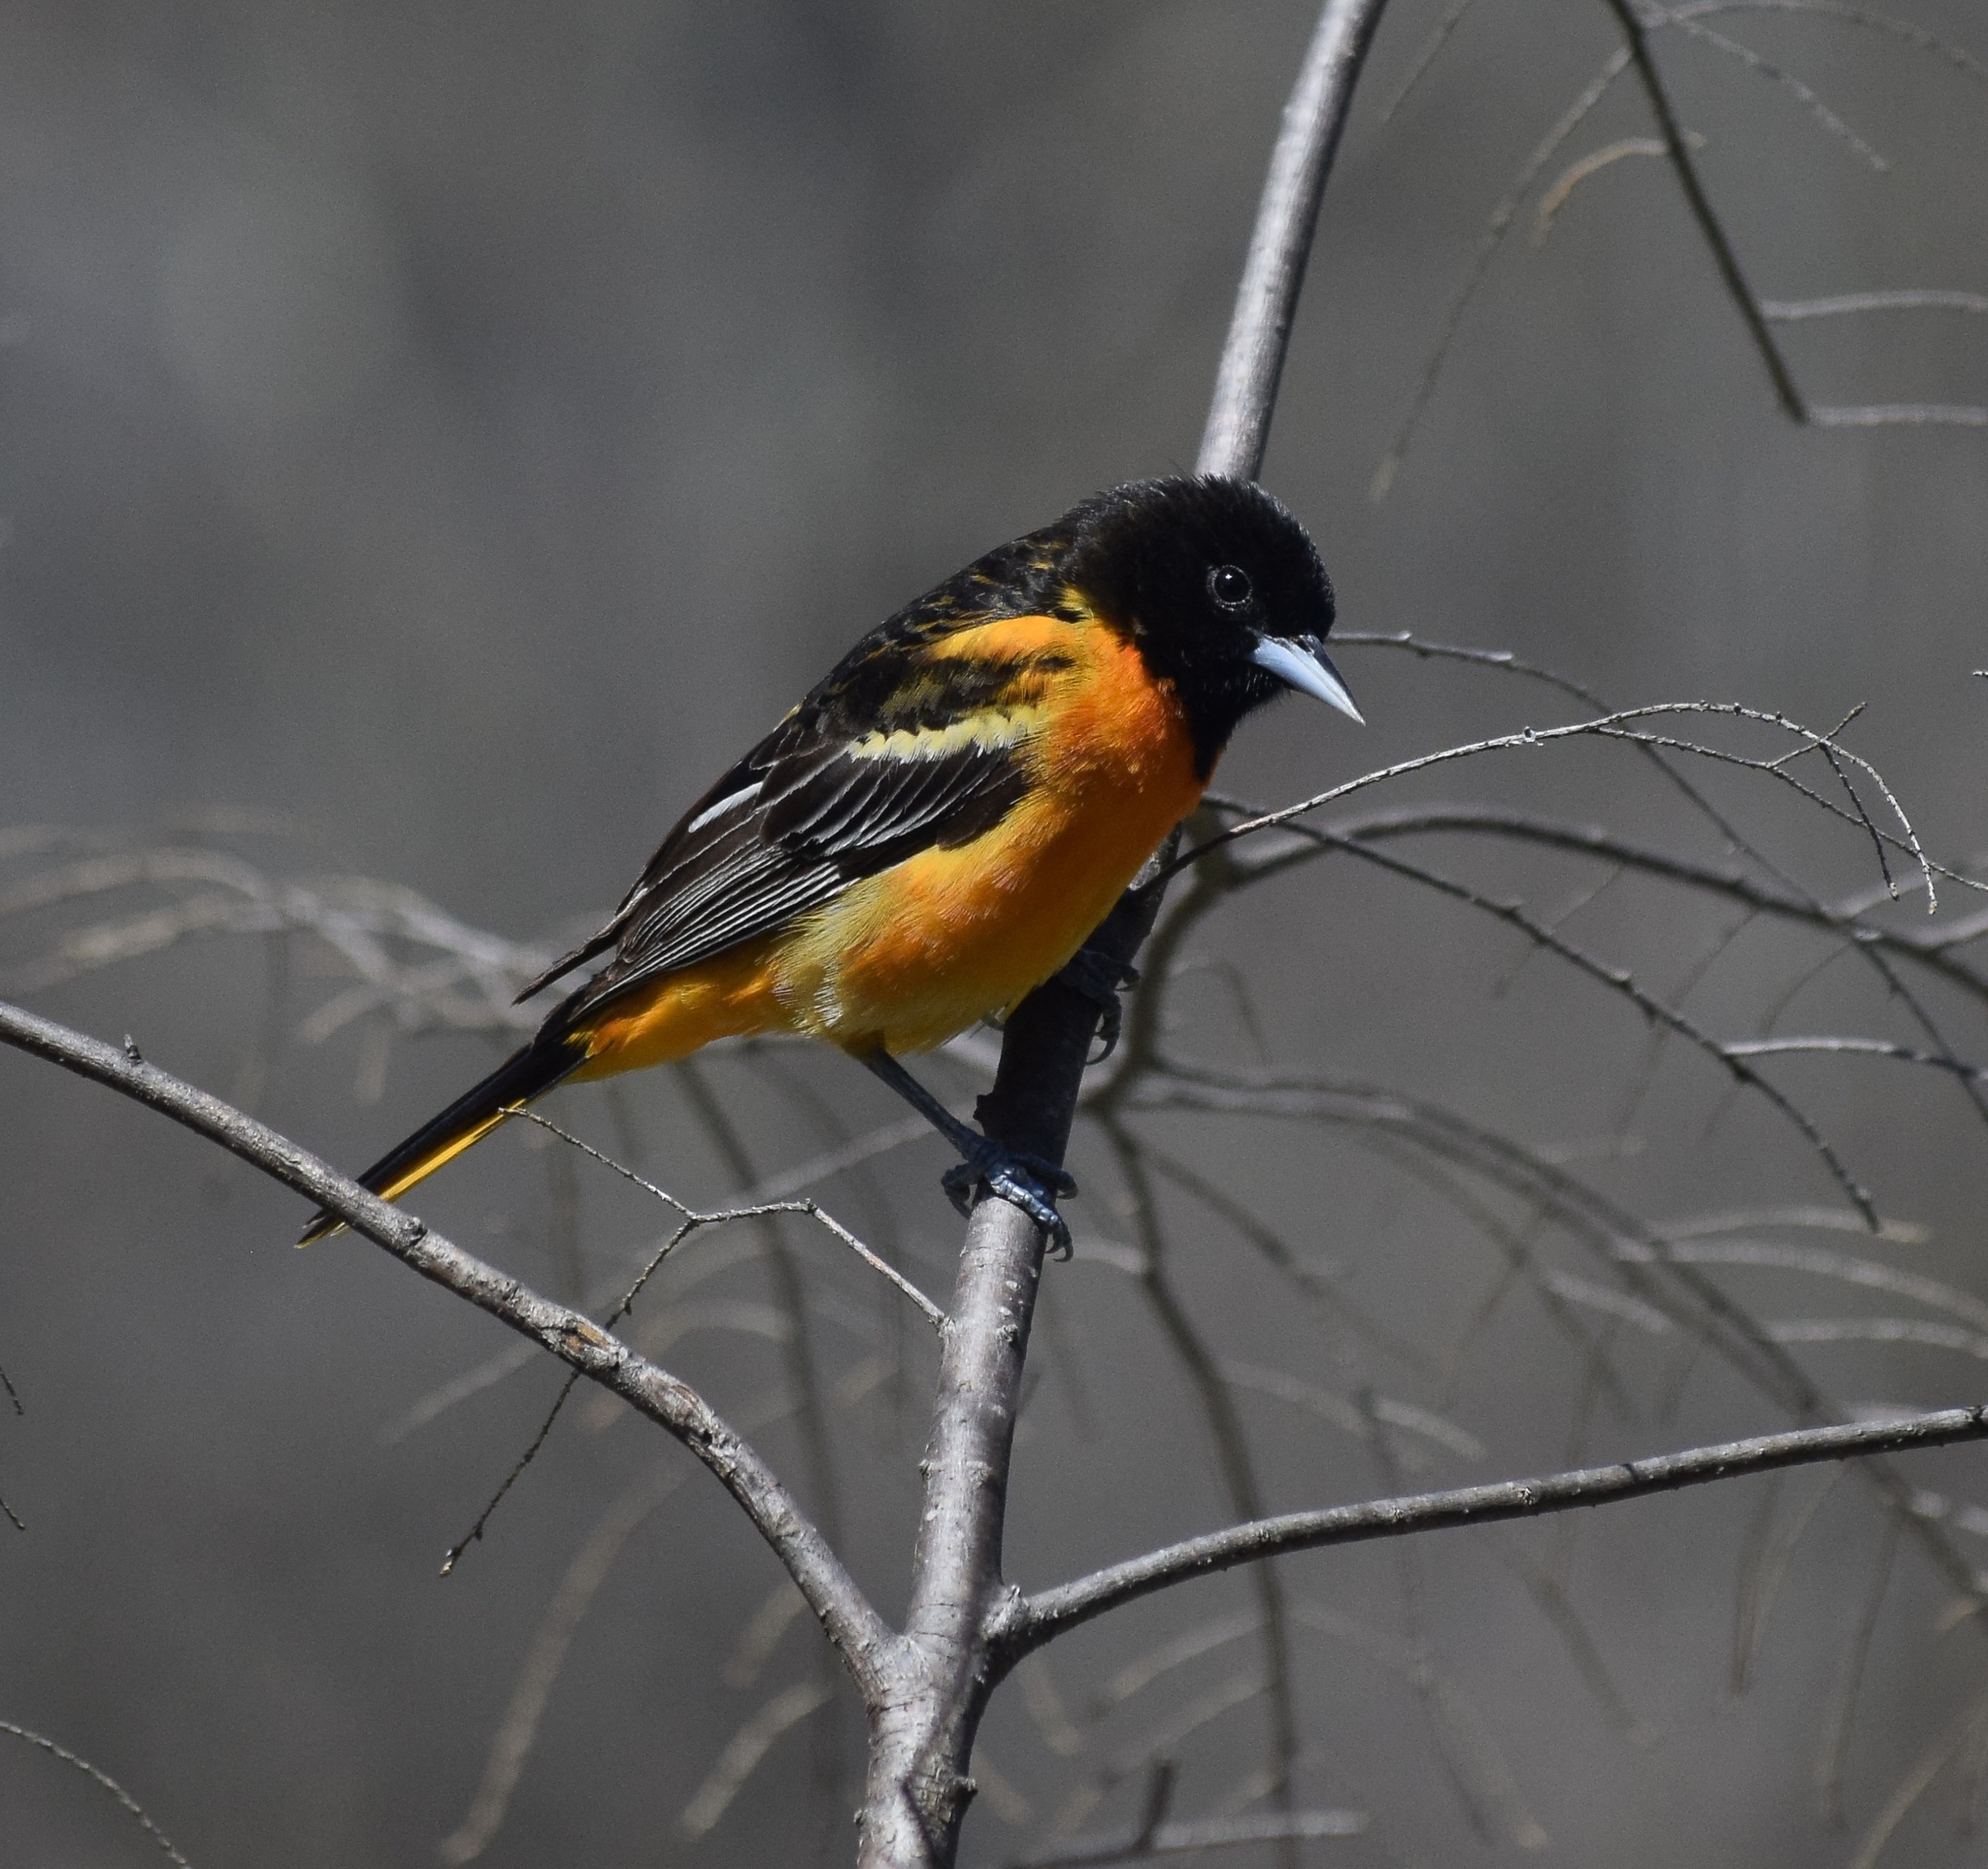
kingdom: Animalia
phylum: Chordata
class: Aves
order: Passeriformes
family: Icteridae
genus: Icterus
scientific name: Icterus galbula
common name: Baltimore oriole
